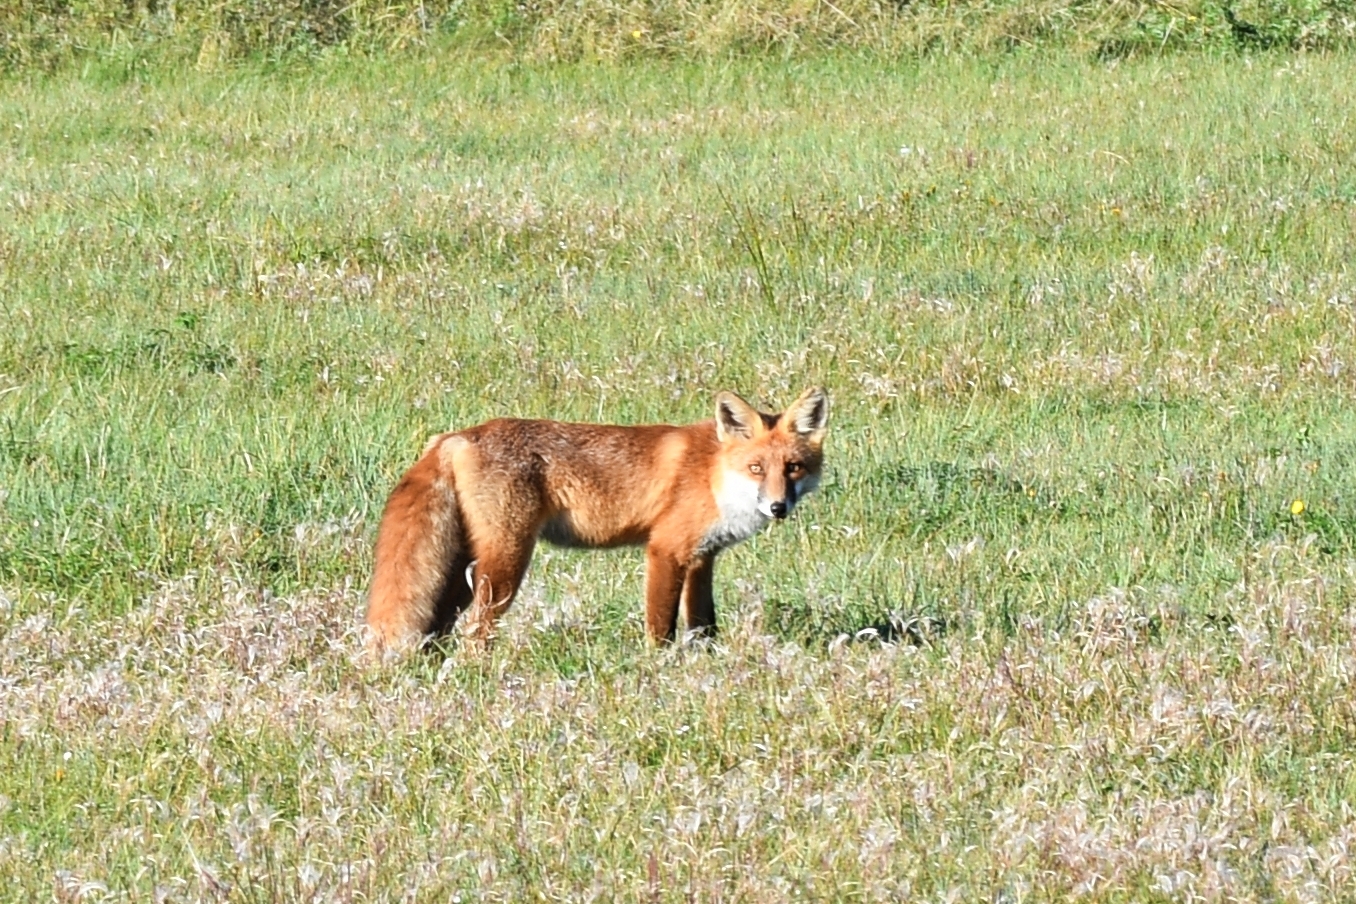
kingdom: Animalia
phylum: Chordata
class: Mammalia
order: Carnivora
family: Canidae
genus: Vulpes
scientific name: Vulpes vulpes
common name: Red fox
